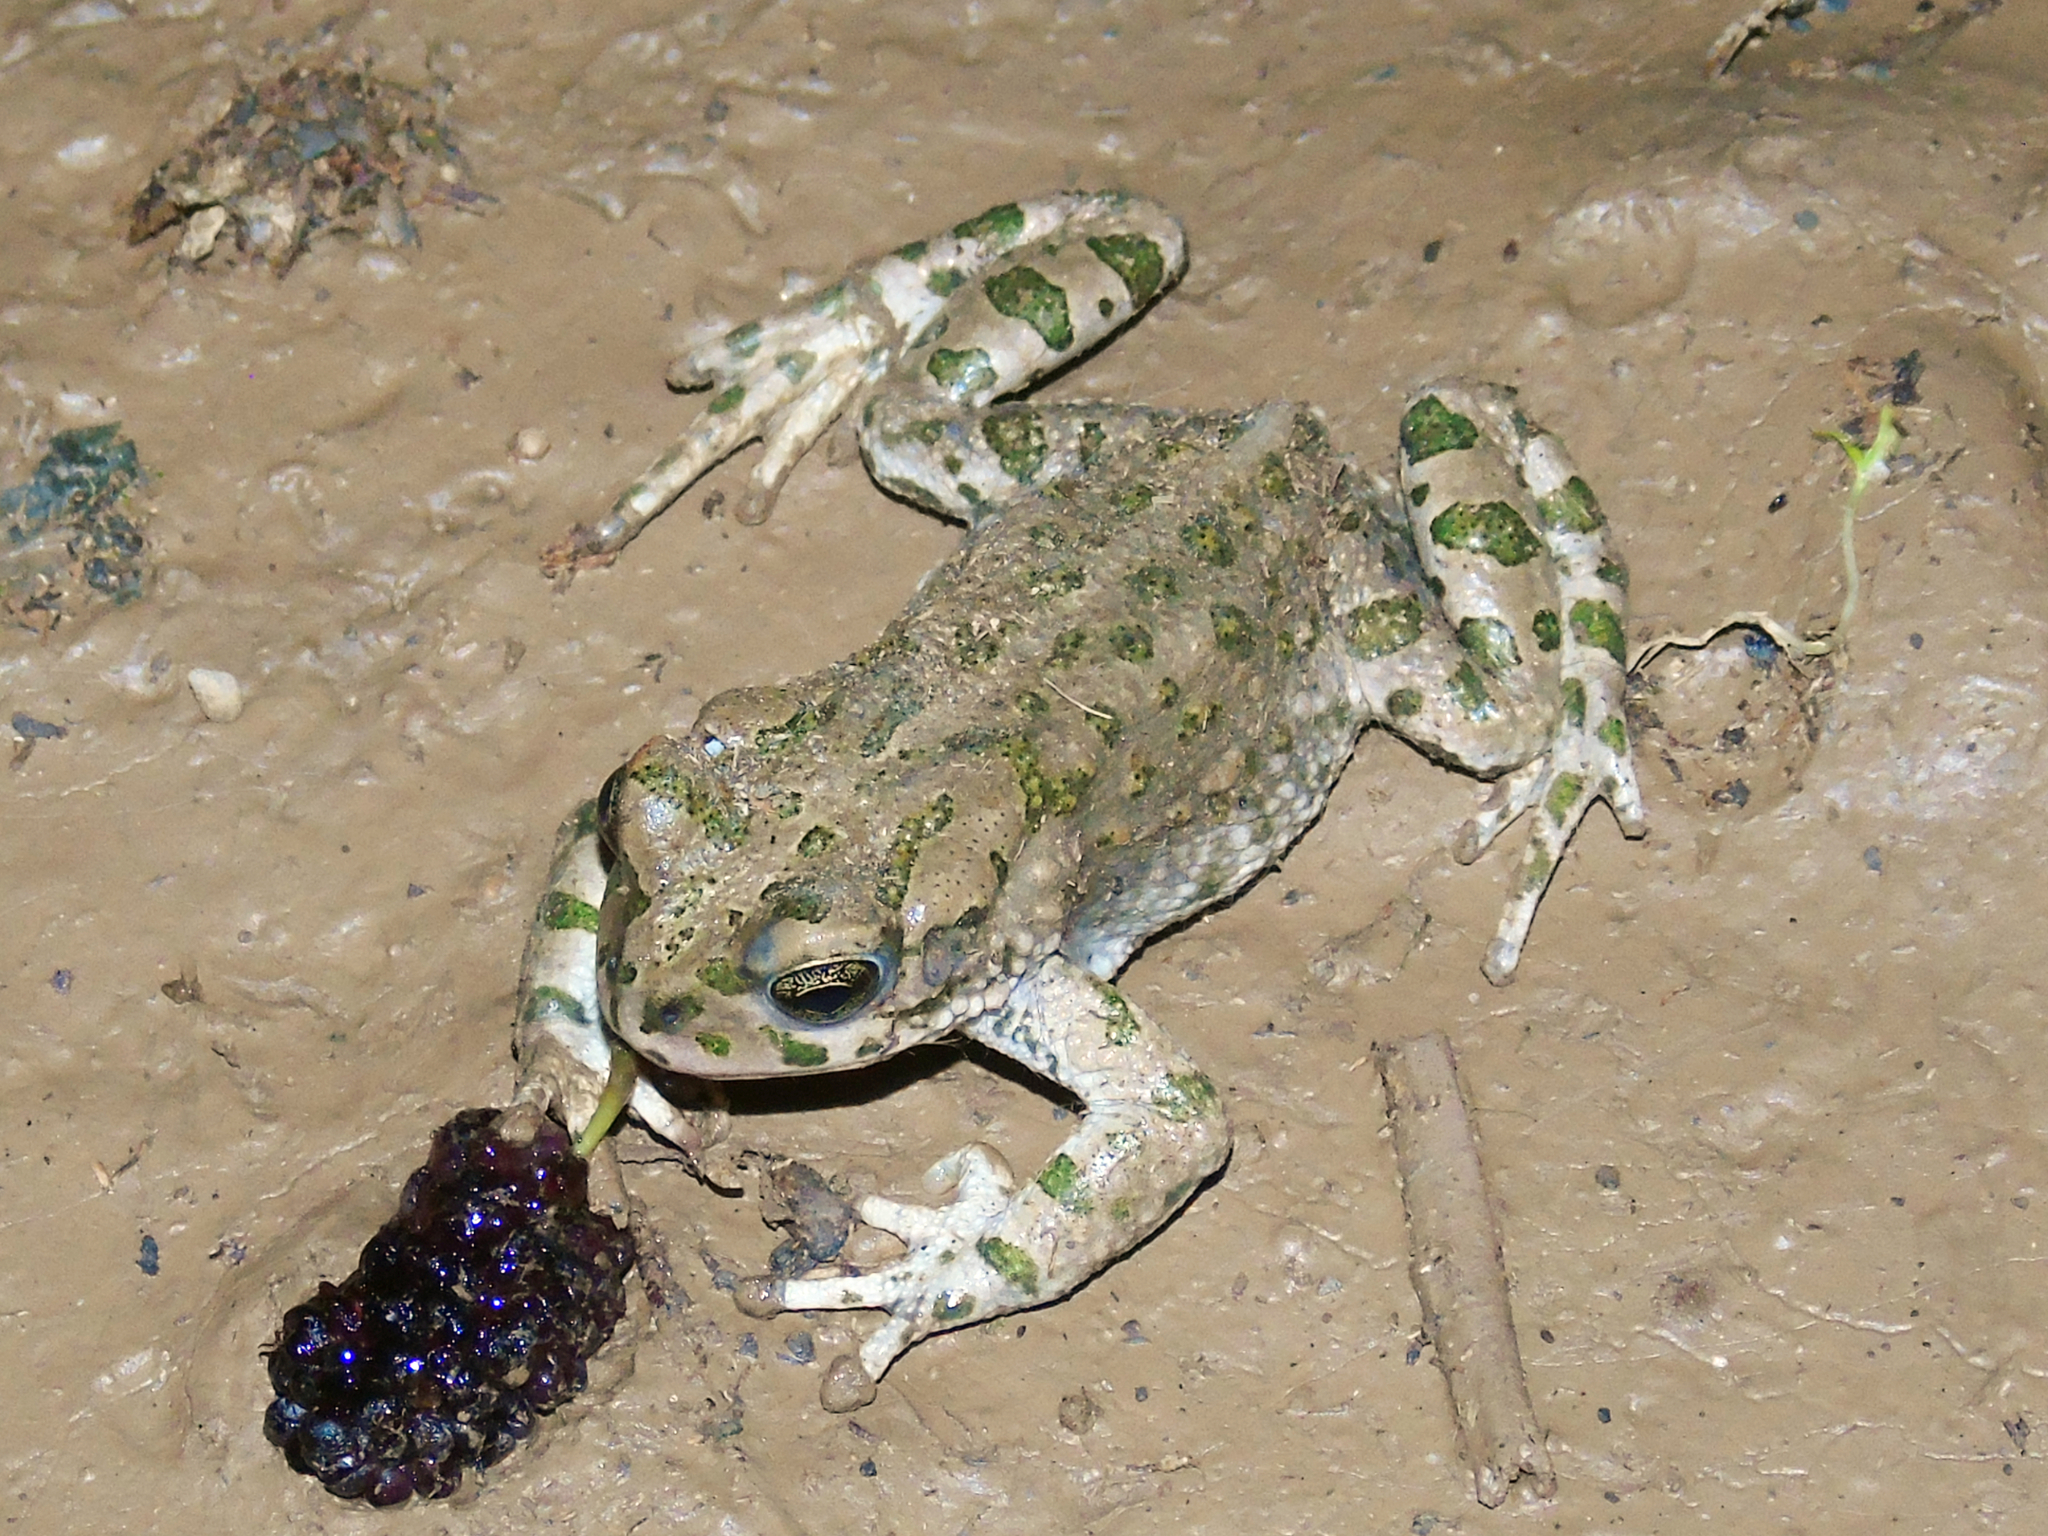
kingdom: Animalia
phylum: Chordata
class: Amphibia
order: Anura
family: Bufonidae
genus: Bufotes
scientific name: Bufotes pewzowi
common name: Xinjiang toad
